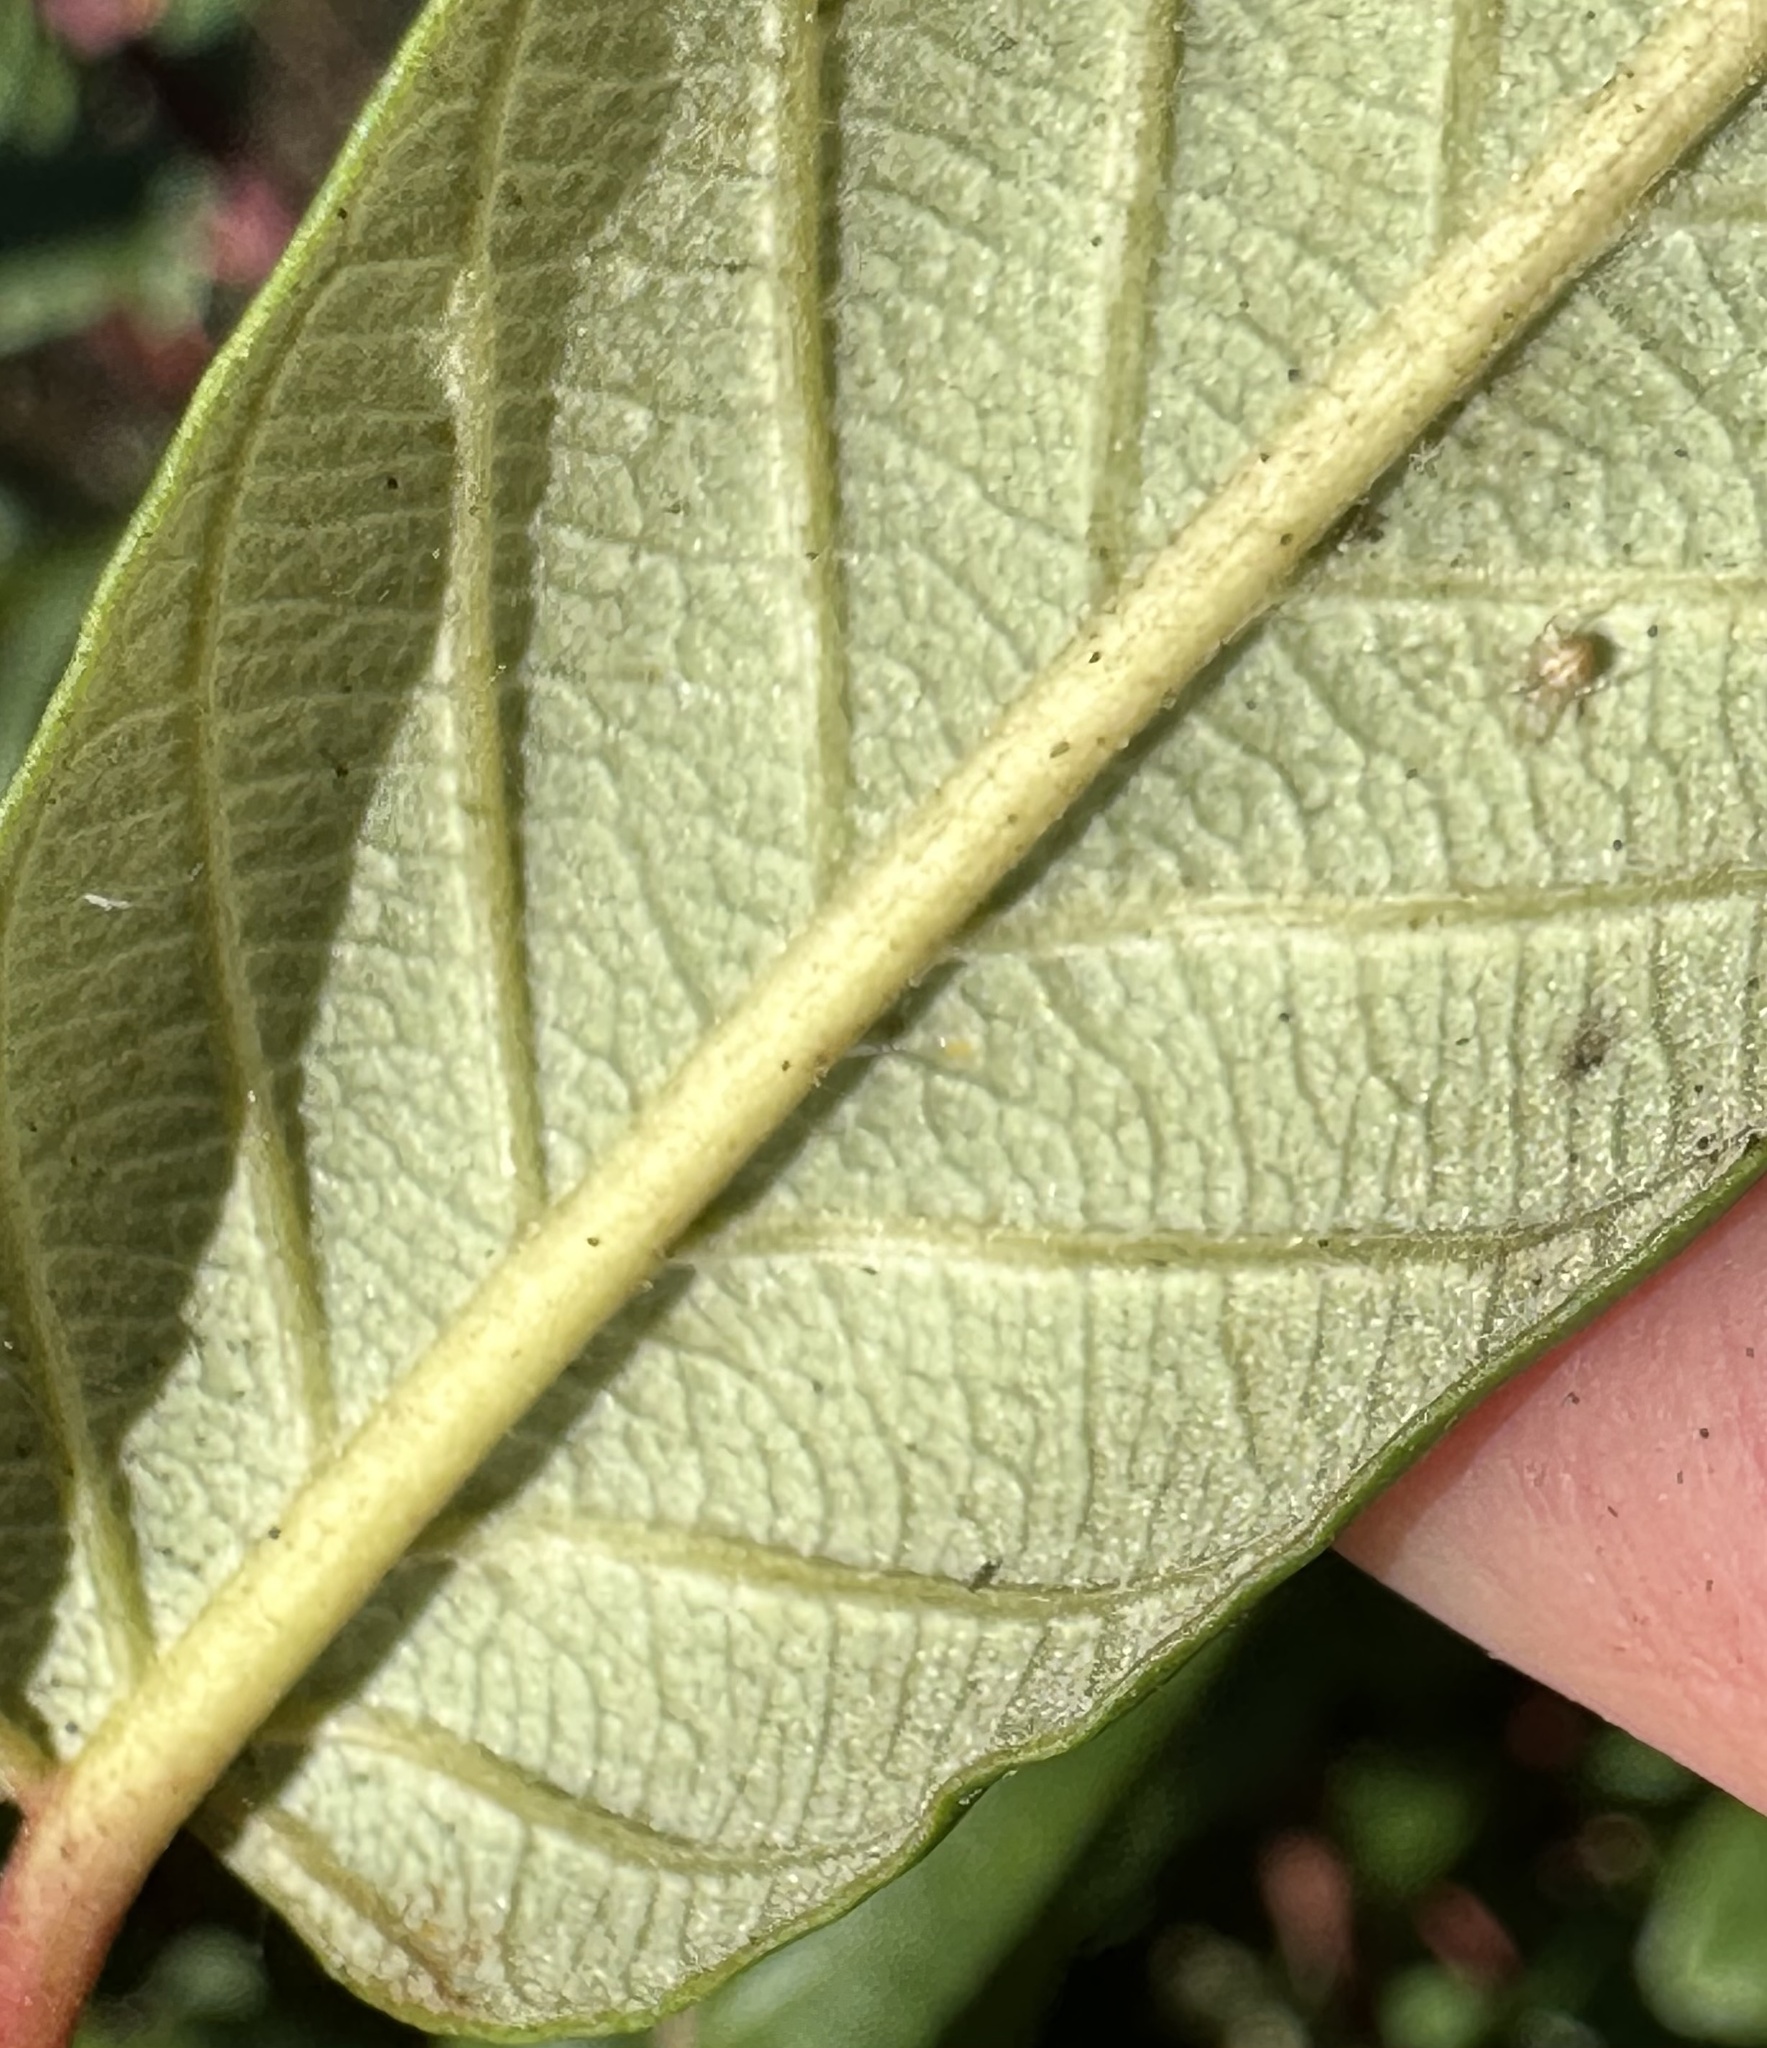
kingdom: Plantae
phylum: Tracheophyta
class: Magnoliopsida
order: Rosales
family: Rhamnaceae
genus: Frangula
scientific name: Frangula californica
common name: California buckthorn
